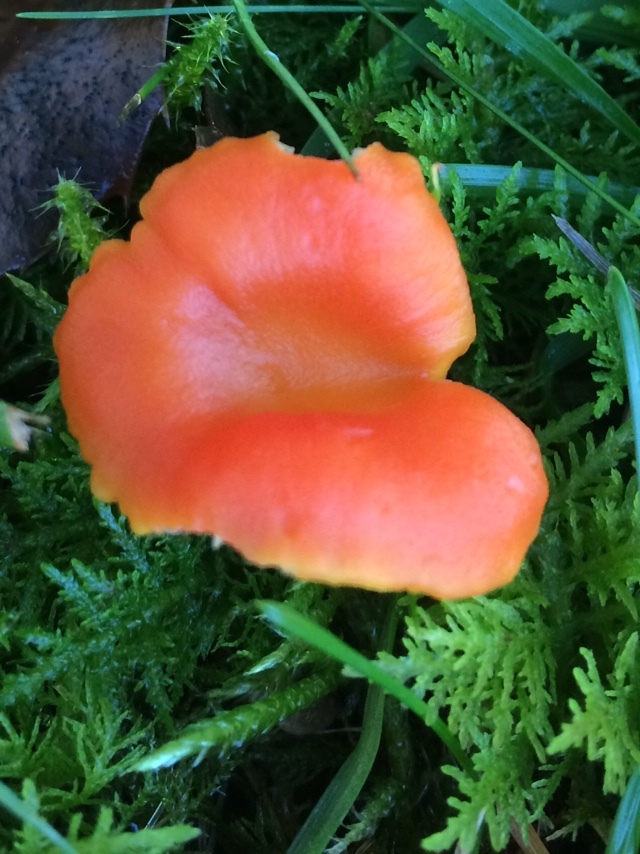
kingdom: Fungi
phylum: Basidiomycota
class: Agaricomycetes
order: Agaricales
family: Hygrophoraceae
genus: Hygrocybe
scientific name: Hygrocybe reidii
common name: Honey waxcap
